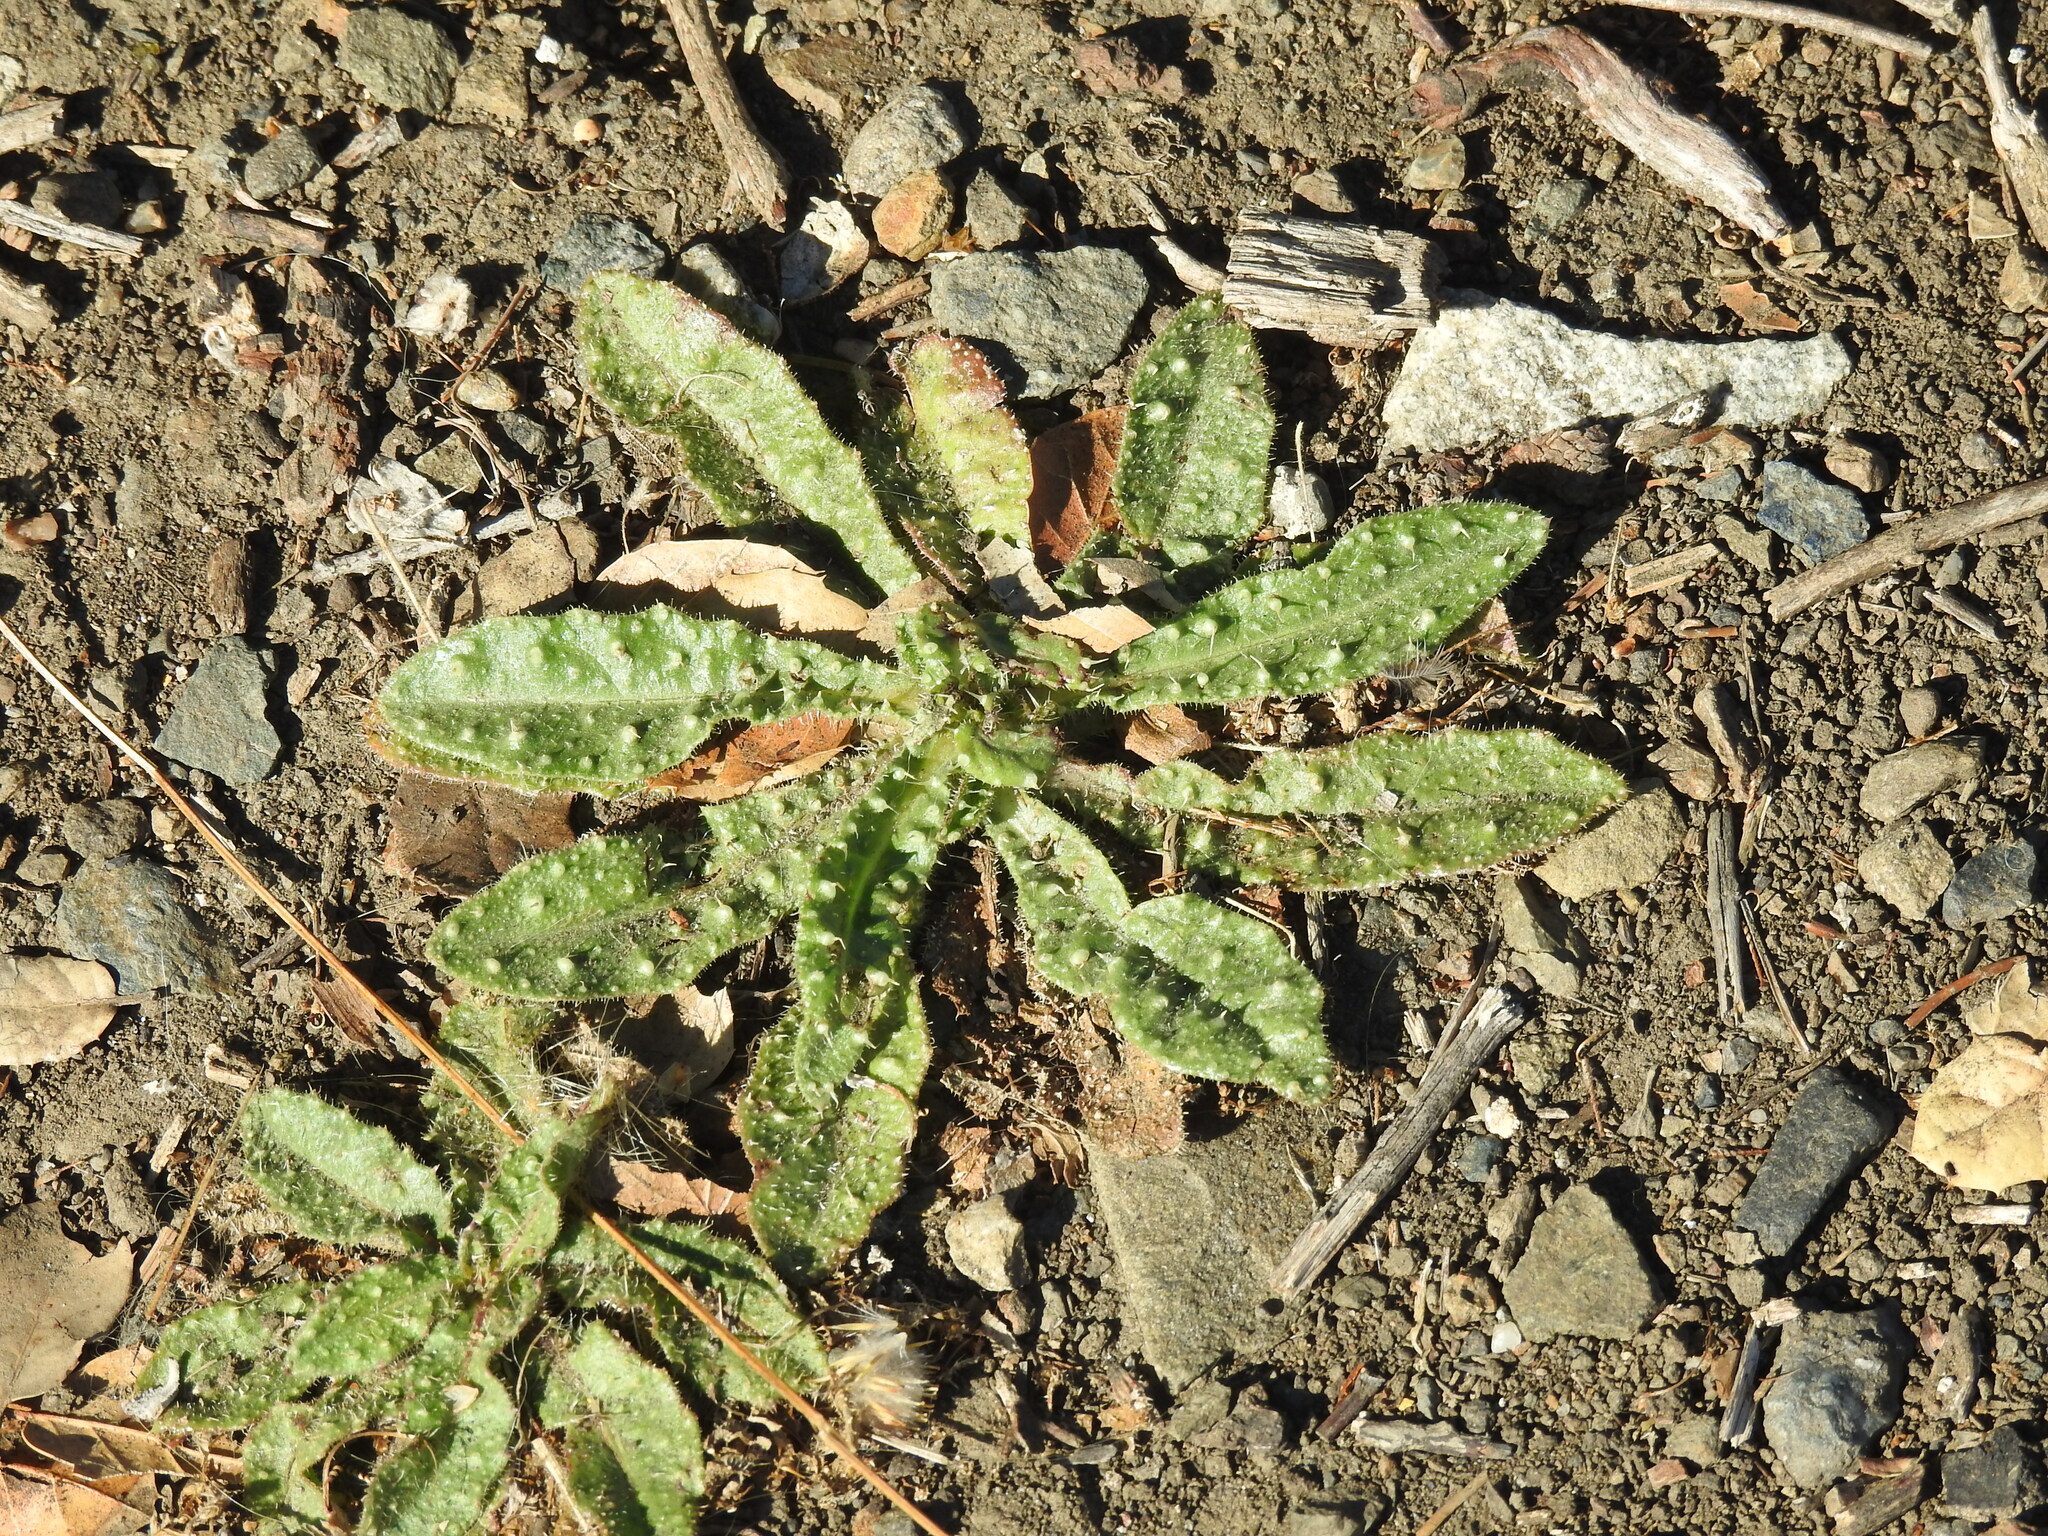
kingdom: Plantae
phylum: Tracheophyta
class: Magnoliopsida
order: Asterales
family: Asteraceae
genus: Helminthotheca
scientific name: Helminthotheca echioides
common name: Ox-tongue
